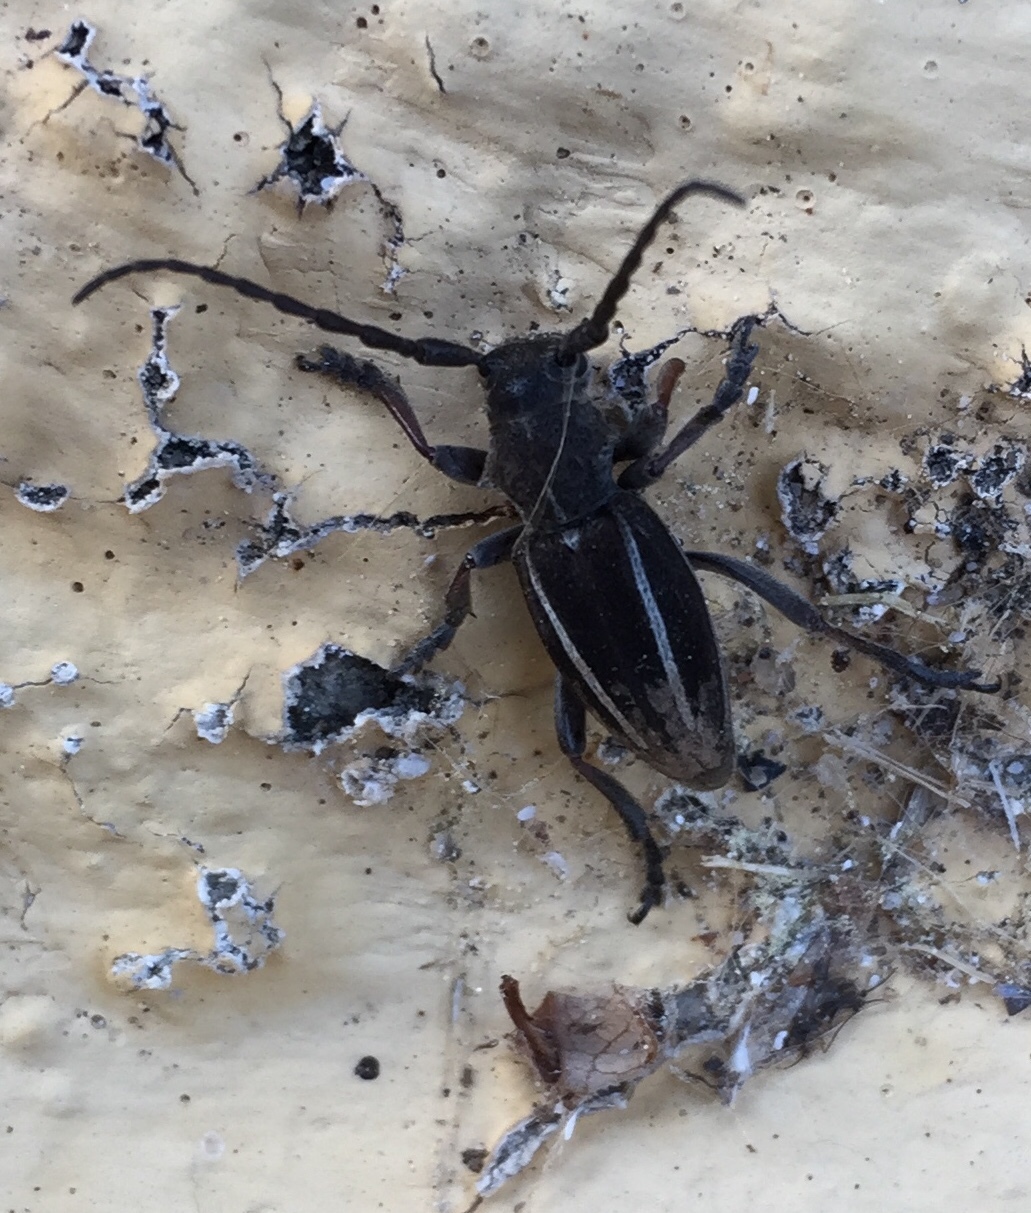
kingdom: Animalia
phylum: Arthropoda
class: Insecta
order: Coleoptera
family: Cerambycidae
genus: Neodorcadion
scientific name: Neodorcadion bilineatum
